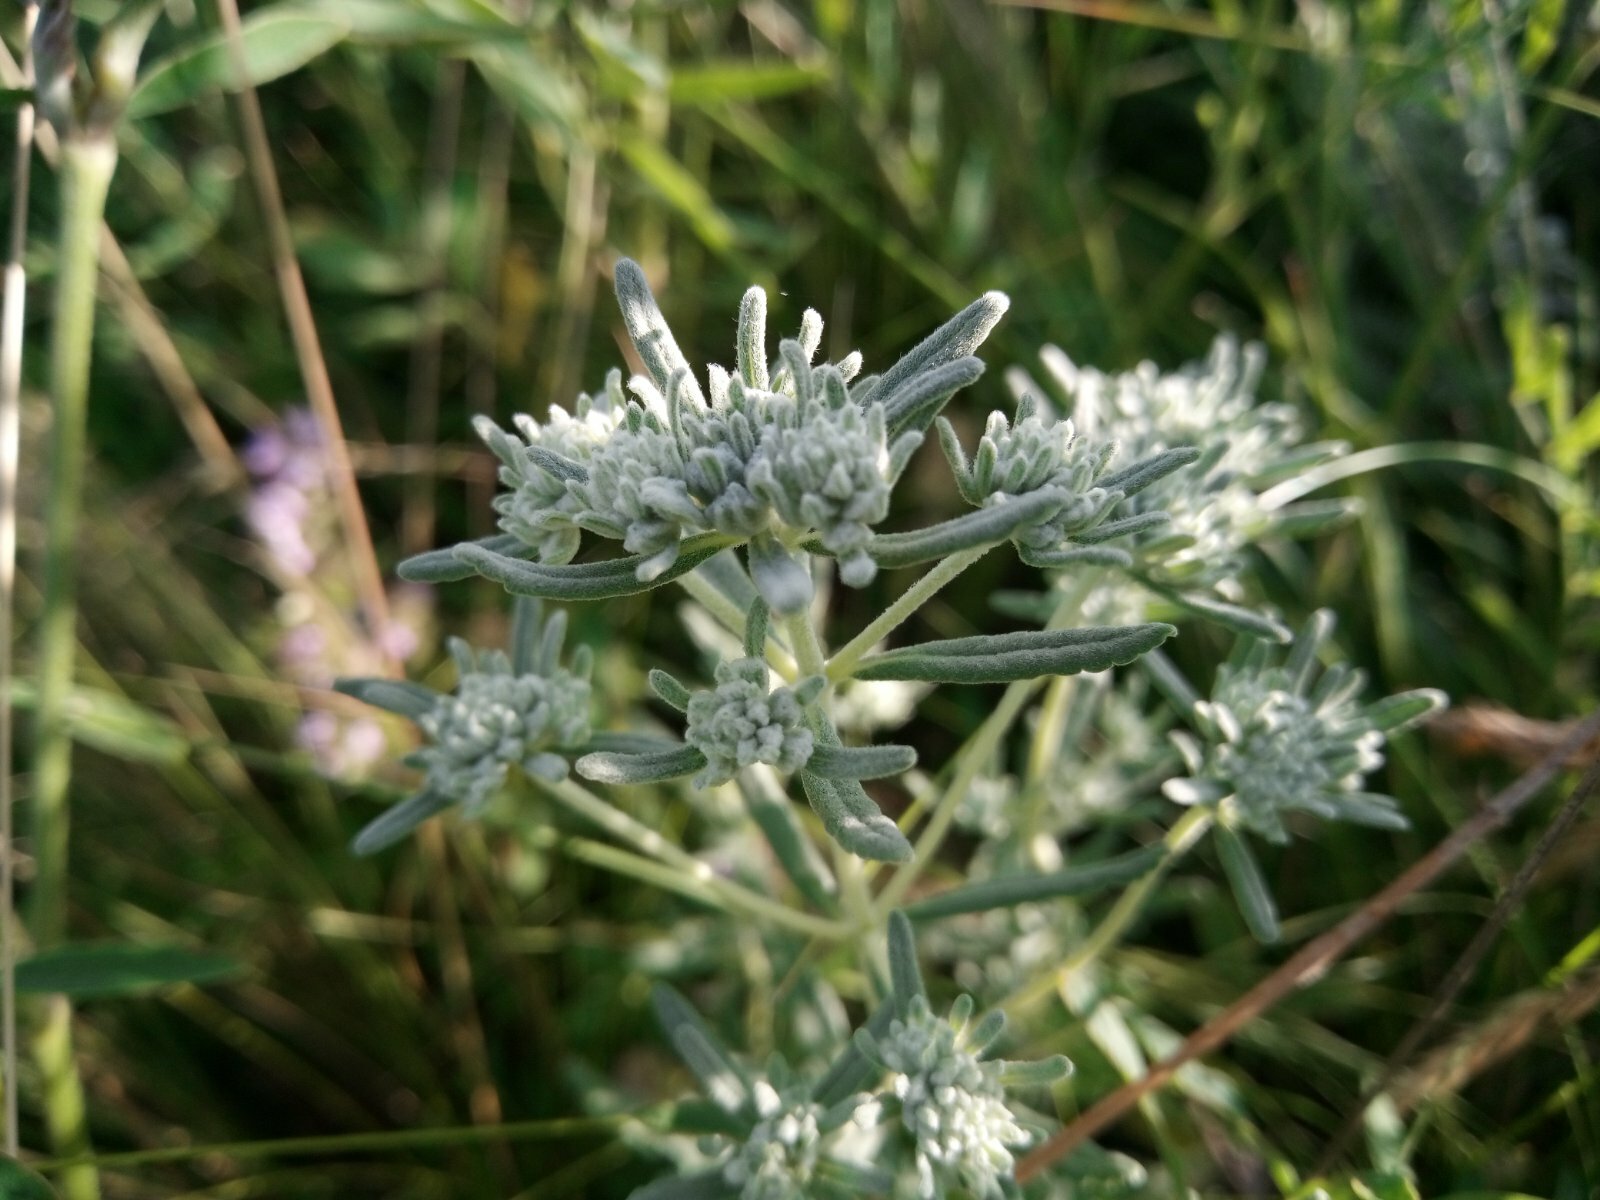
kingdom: Plantae
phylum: Tracheophyta
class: Magnoliopsida
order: Lamiales
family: Lamiaceae
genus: Teucrium
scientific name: Teucrium polium
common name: Poley
